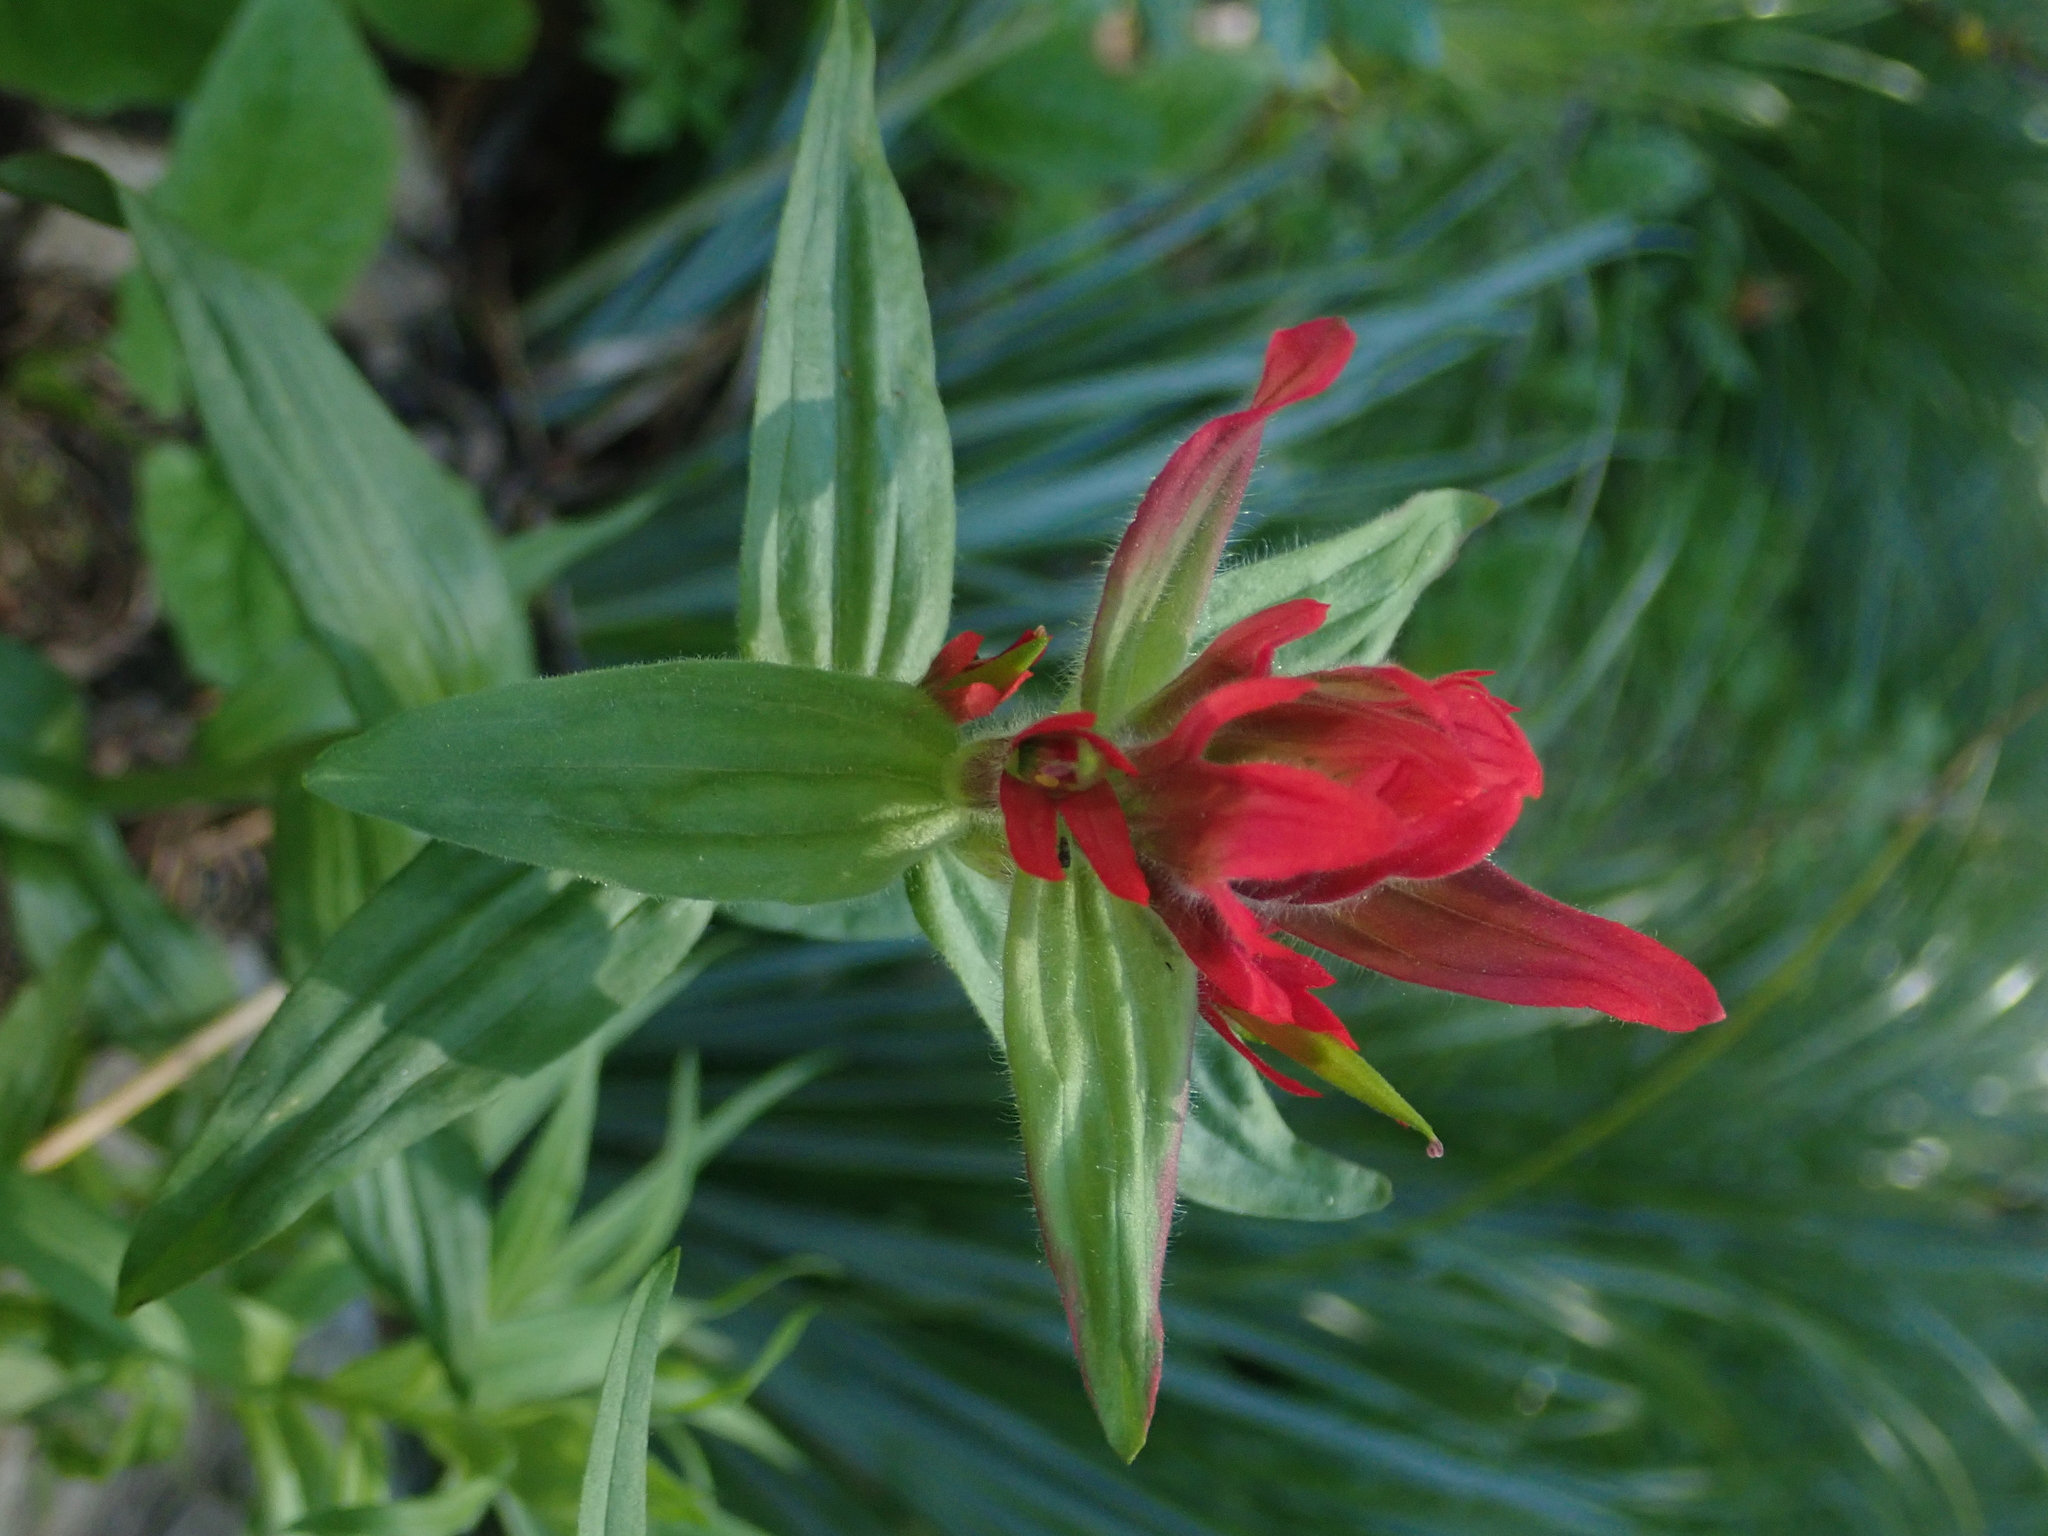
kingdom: Plantae
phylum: Tracheophyta
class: Magnoliopsida
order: Lamiales
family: Orobanchaceae
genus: Castilleja
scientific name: Castilleja miniata
